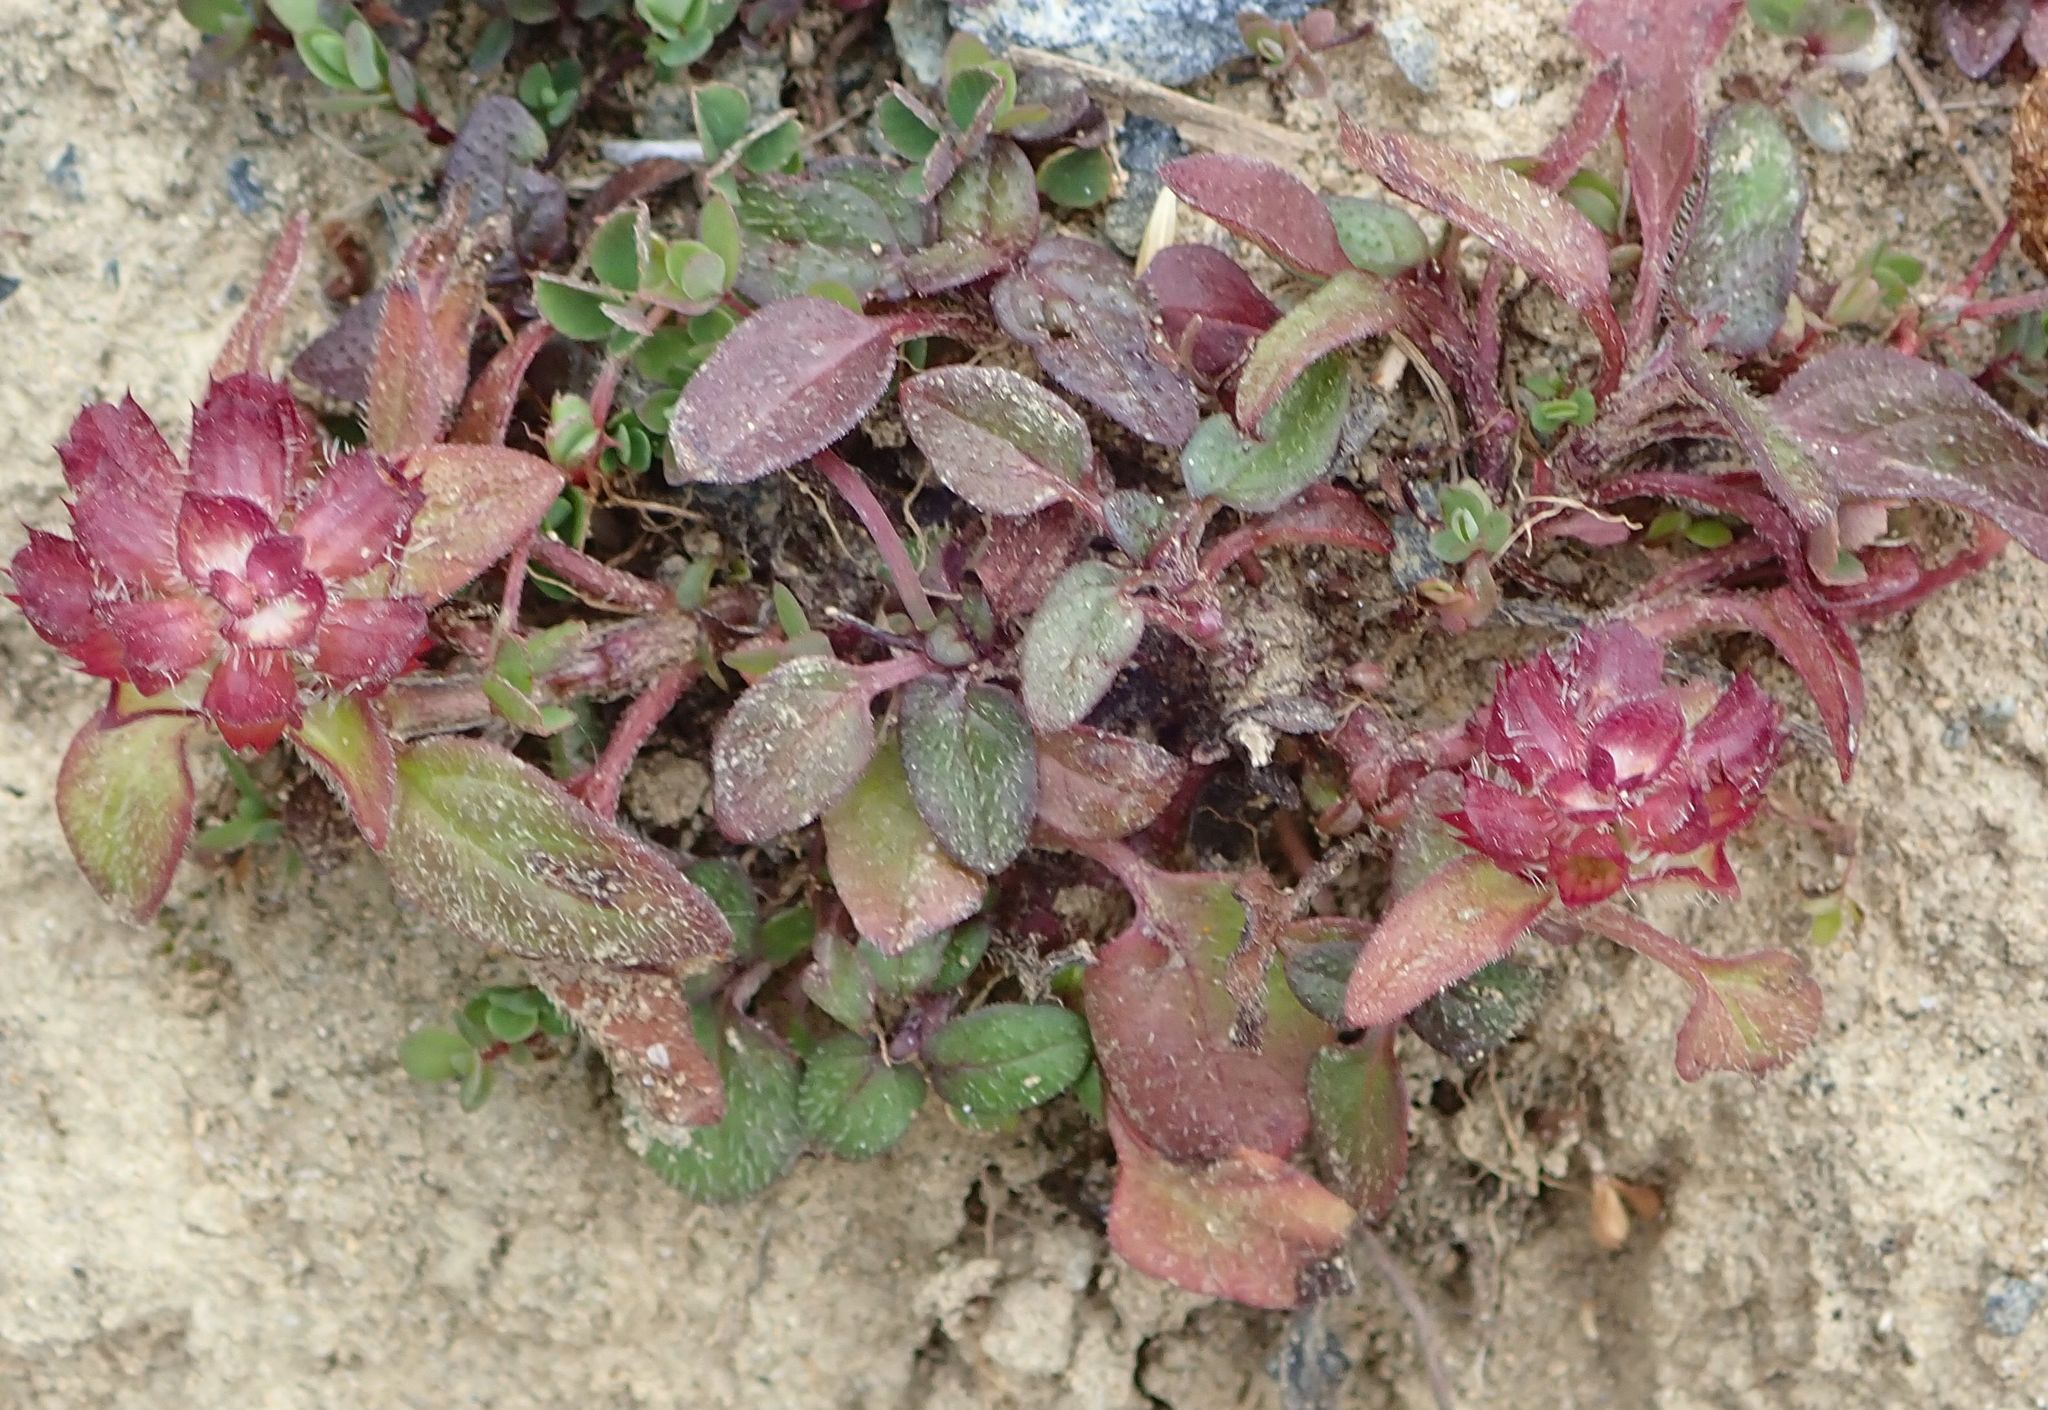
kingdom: Plantae
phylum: Tracheophyta
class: Magnoliopsida
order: Lamiales
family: Lamiaceae
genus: Prunella
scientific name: Prunella vulgaris
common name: Heal-all
